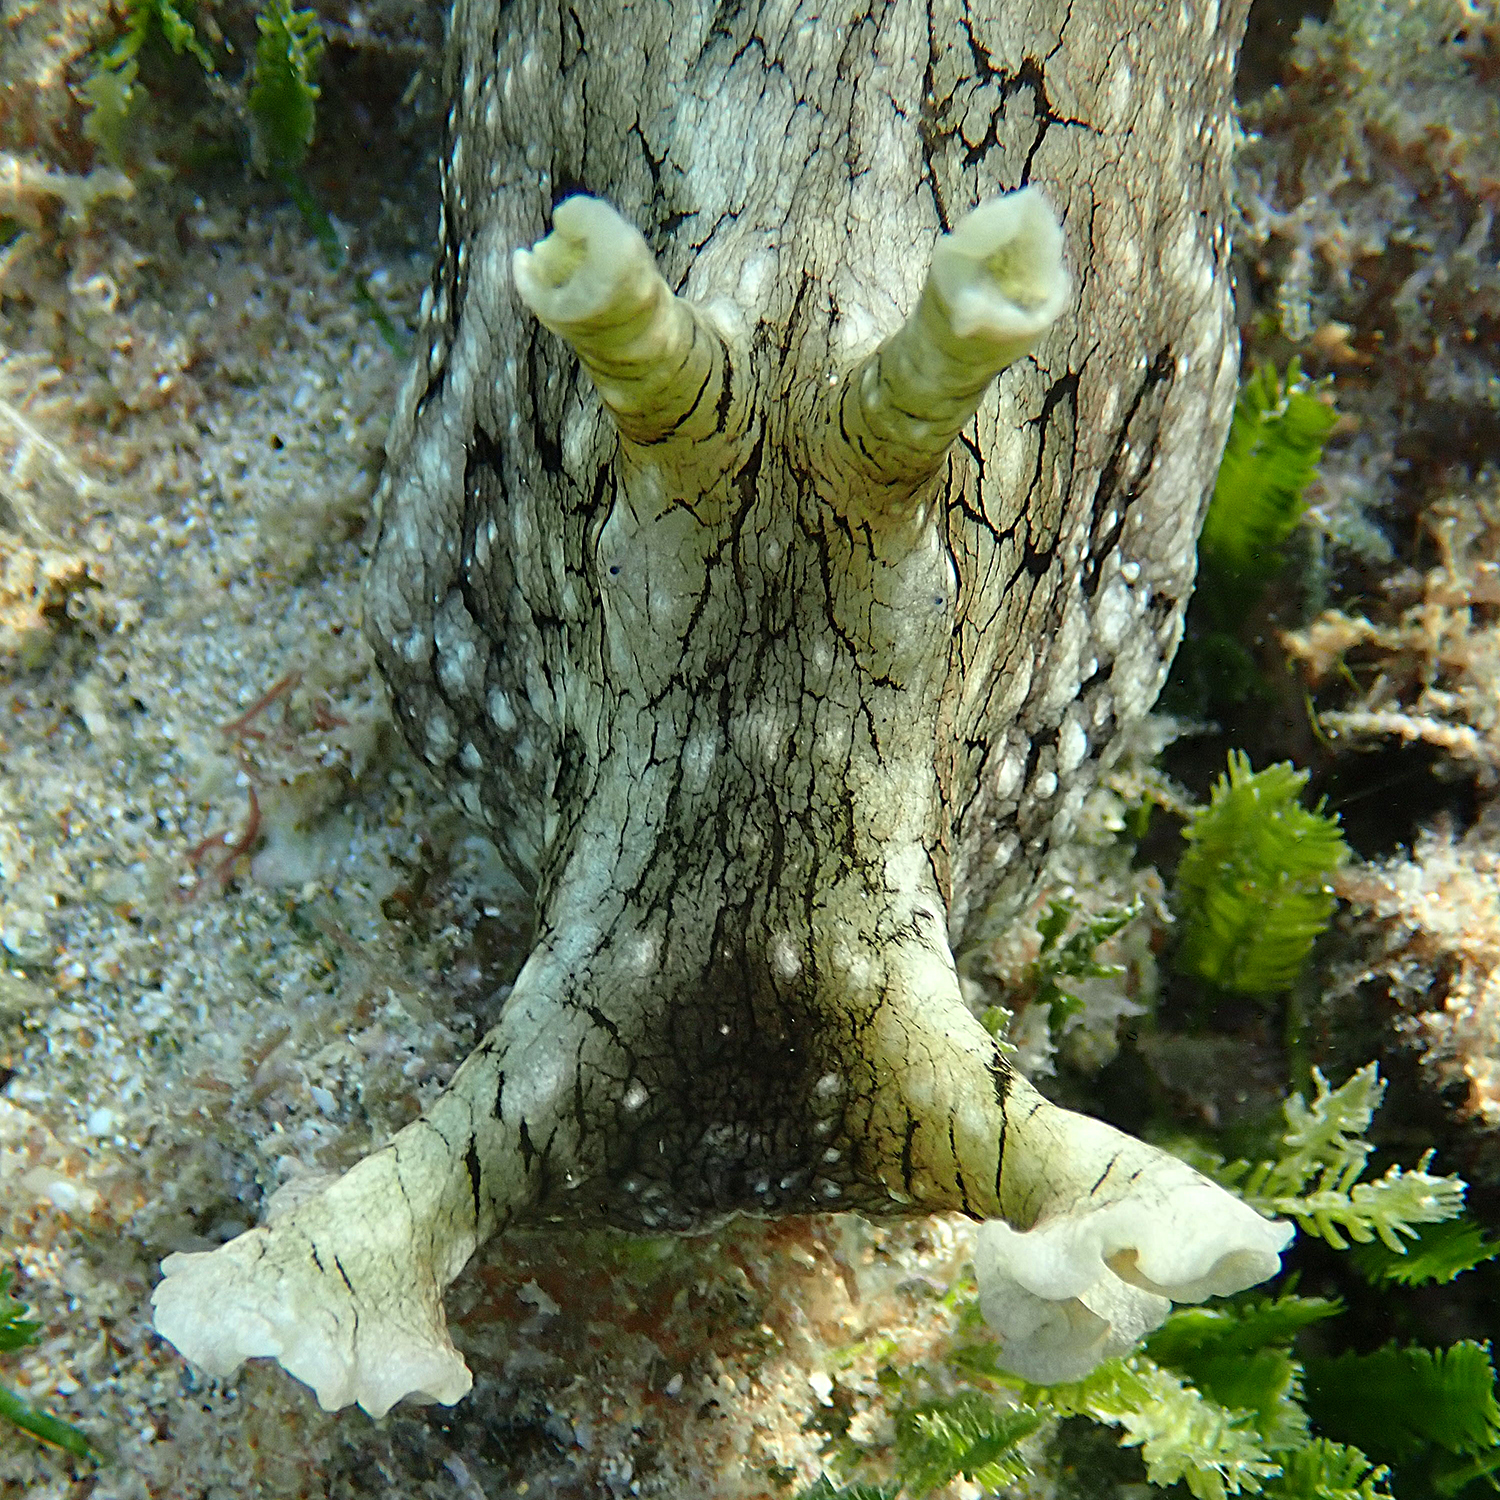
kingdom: Animalia
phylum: Mollusca
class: Gastropoda
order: Aplysiida
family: Aplysiidae
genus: Aplysia
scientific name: Aplysia argus
